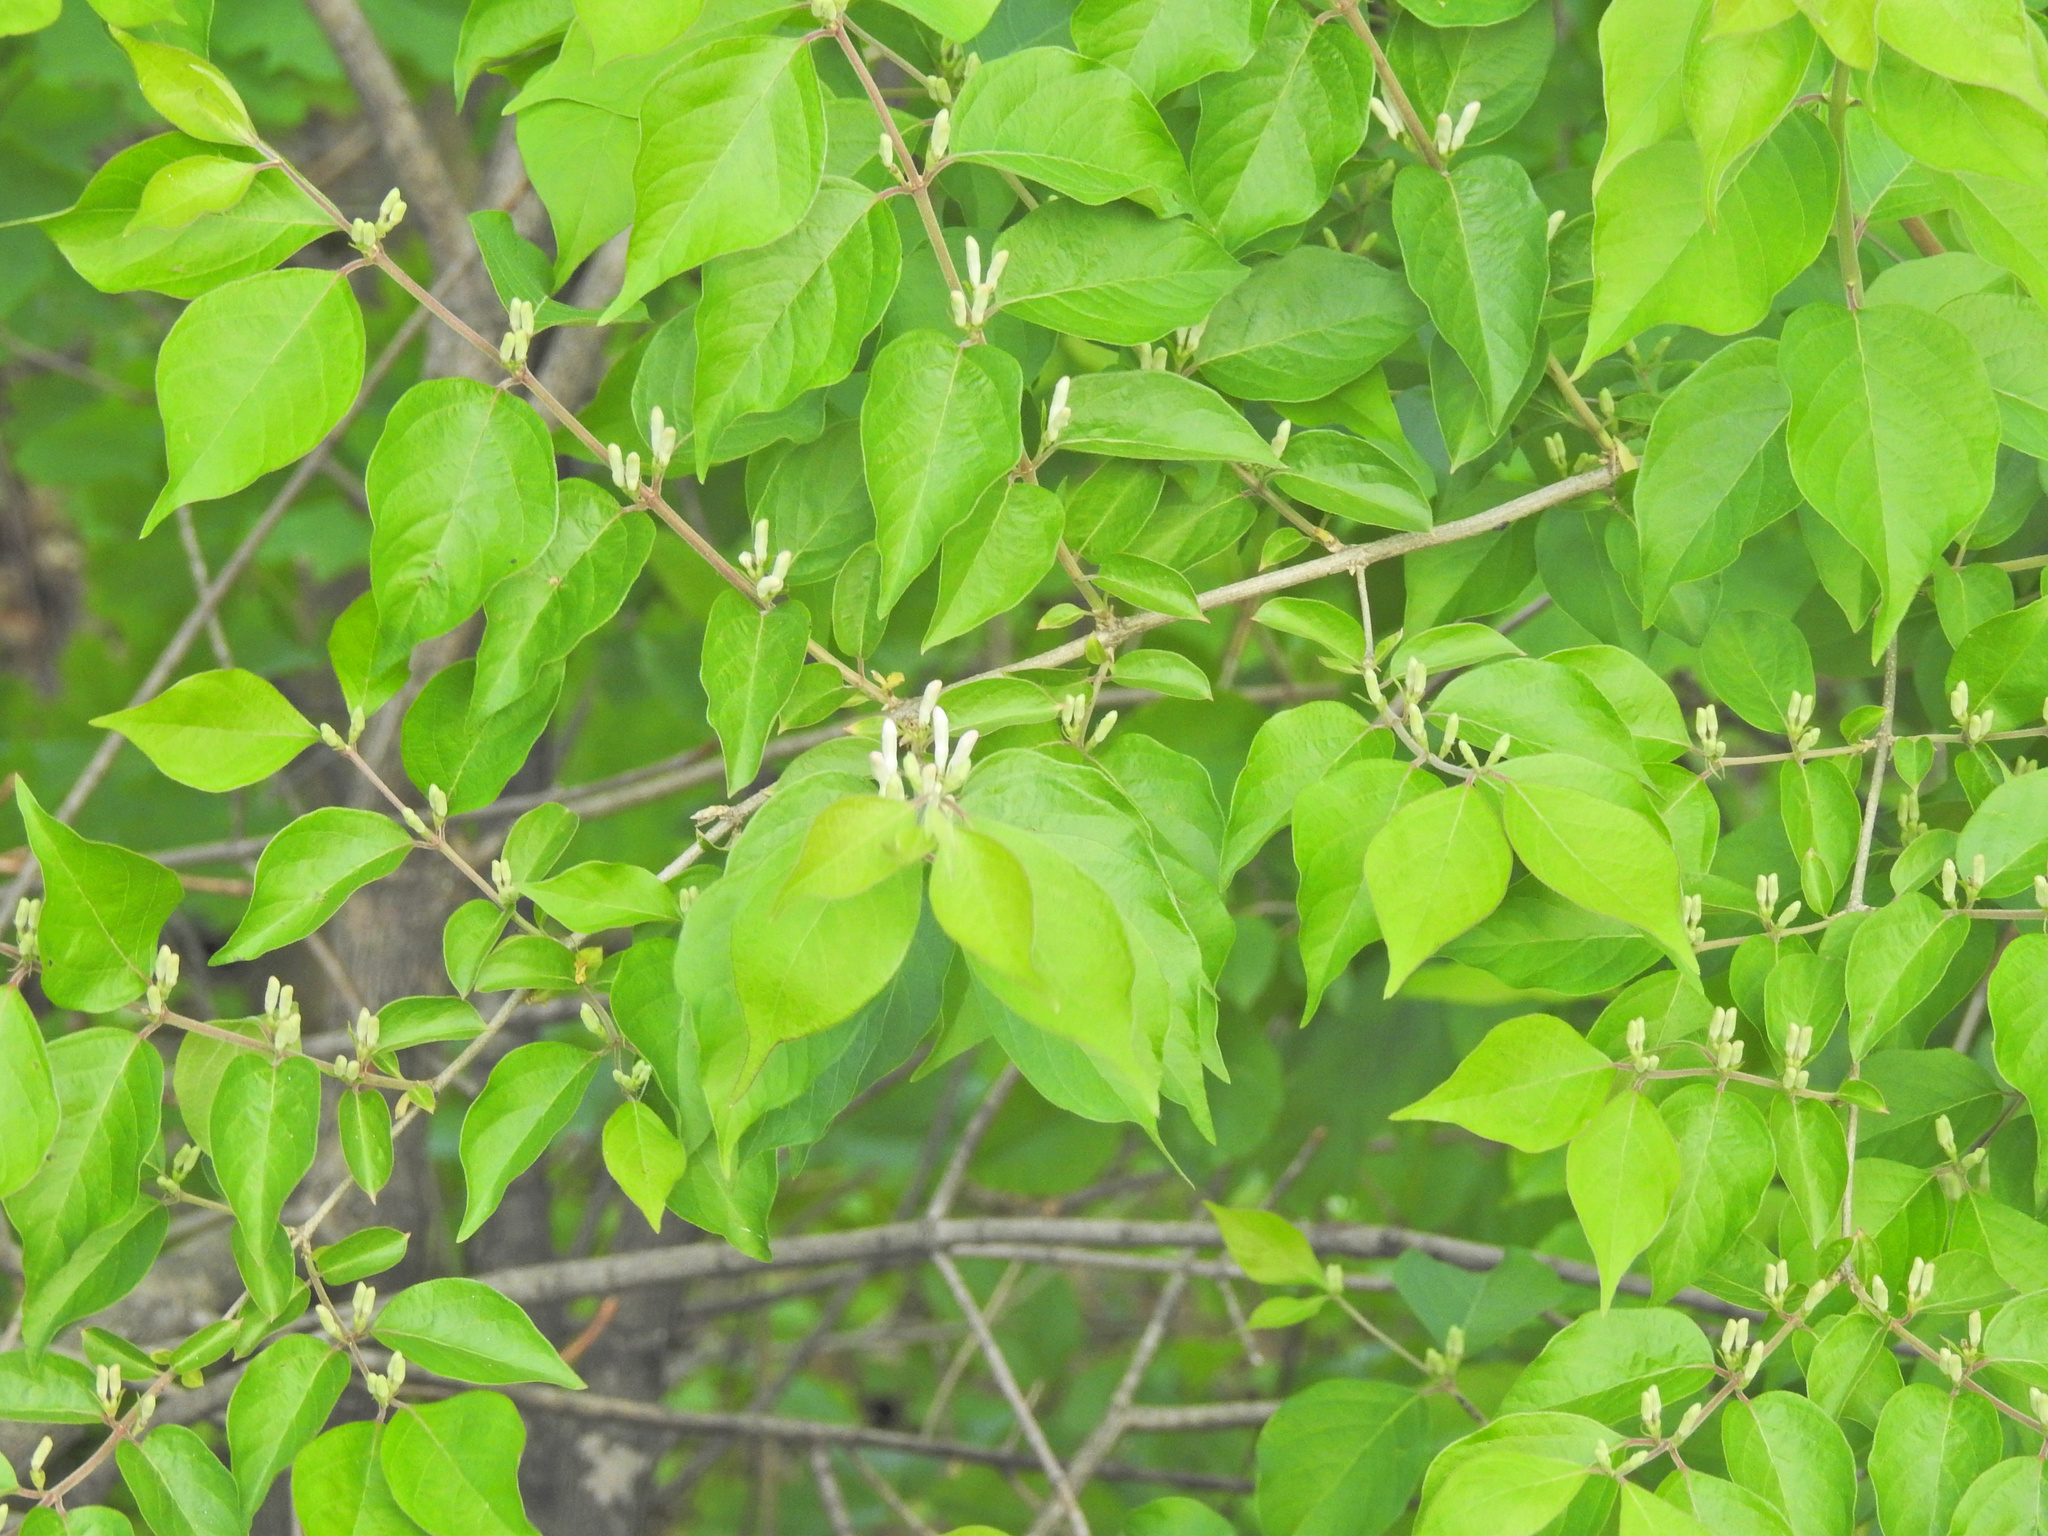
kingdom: Plantae
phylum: Tracheophyta
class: Magnoliopsida
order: Dipsacales
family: Caprifoliaceae
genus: Lonicera
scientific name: Lonicera maackii
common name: Amur honeysuckle
